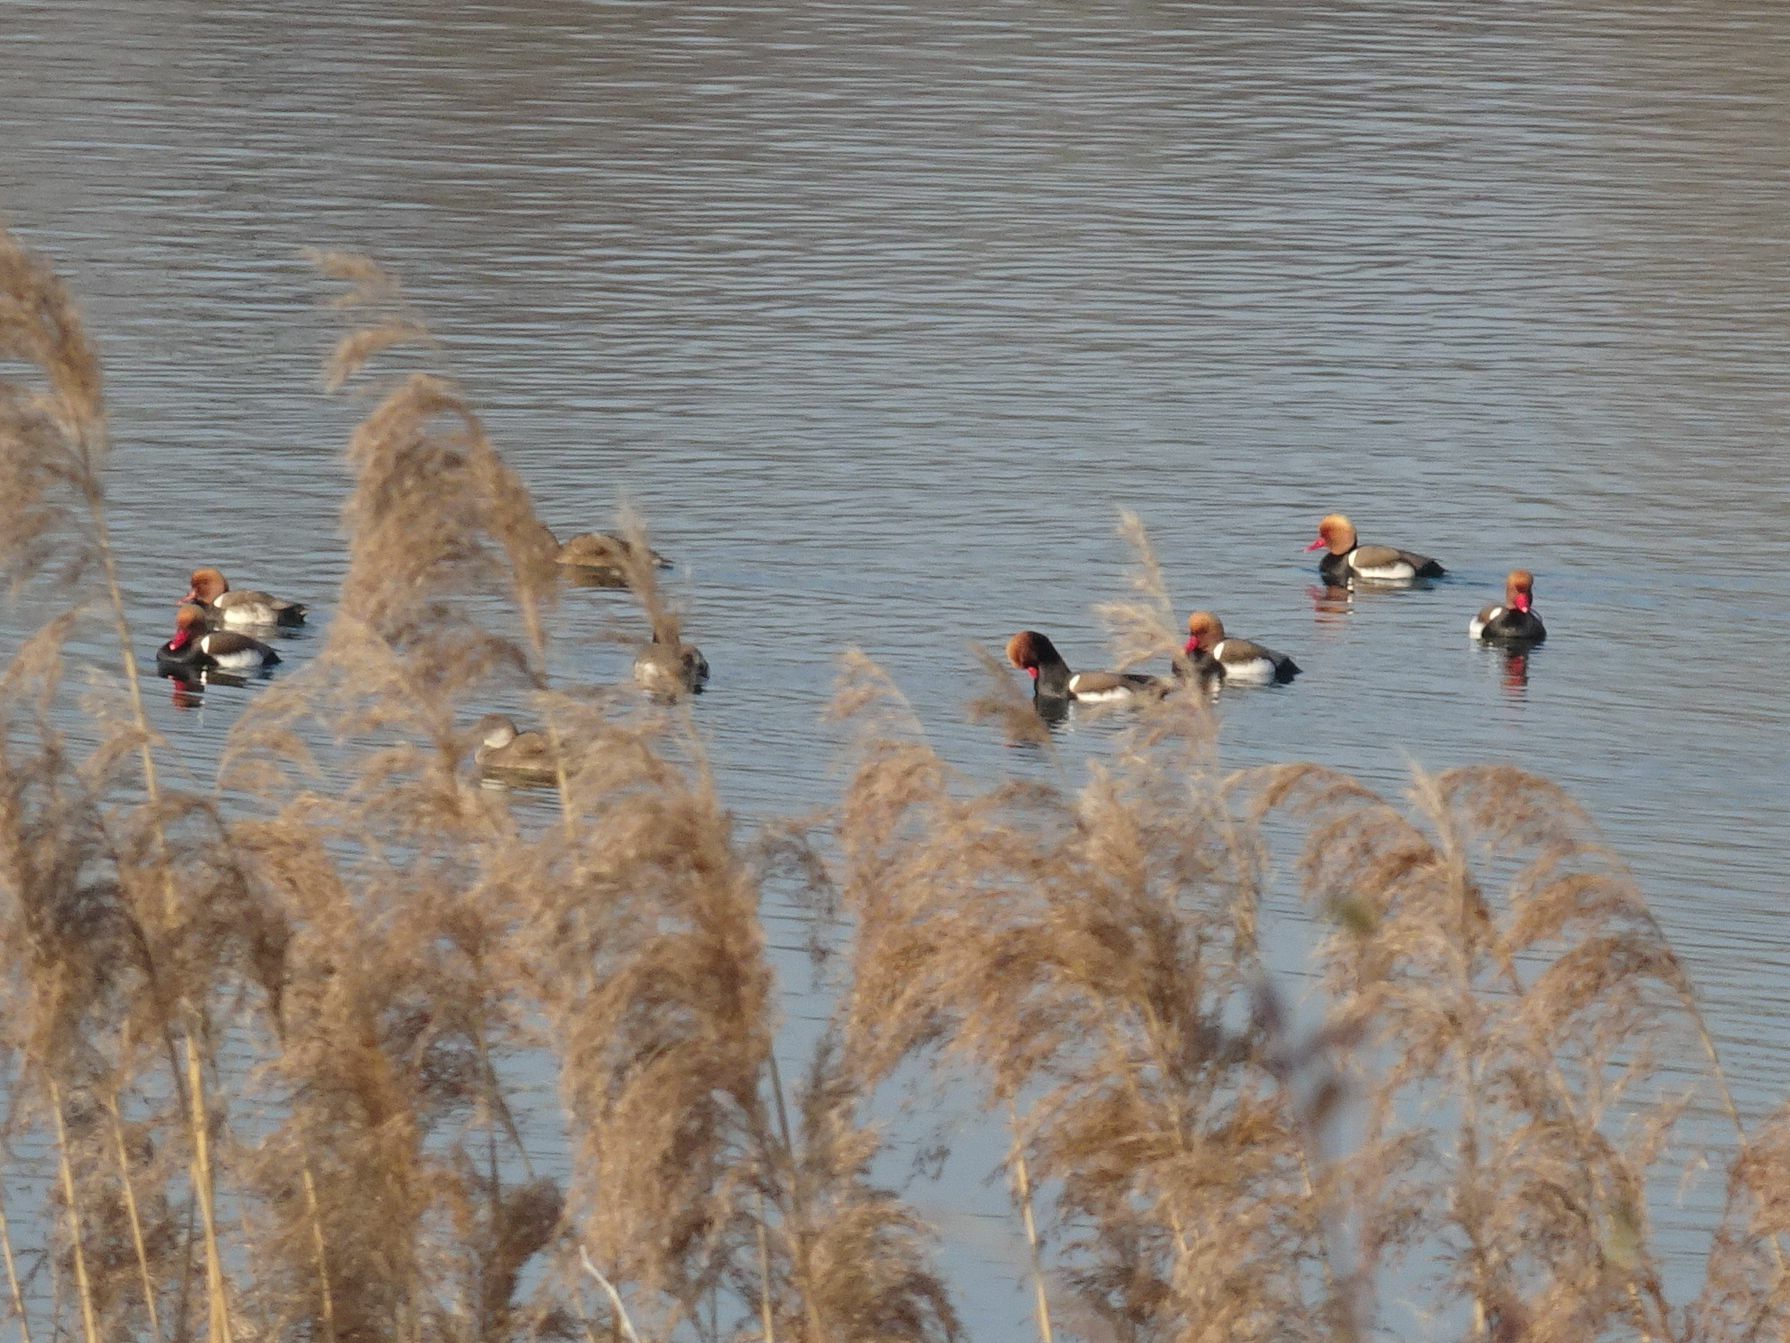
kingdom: Animalia
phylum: Chordata
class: Aves
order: Anseriformes
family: Anatidae
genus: Netta
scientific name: Netta rufina
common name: Red-crested pochard
